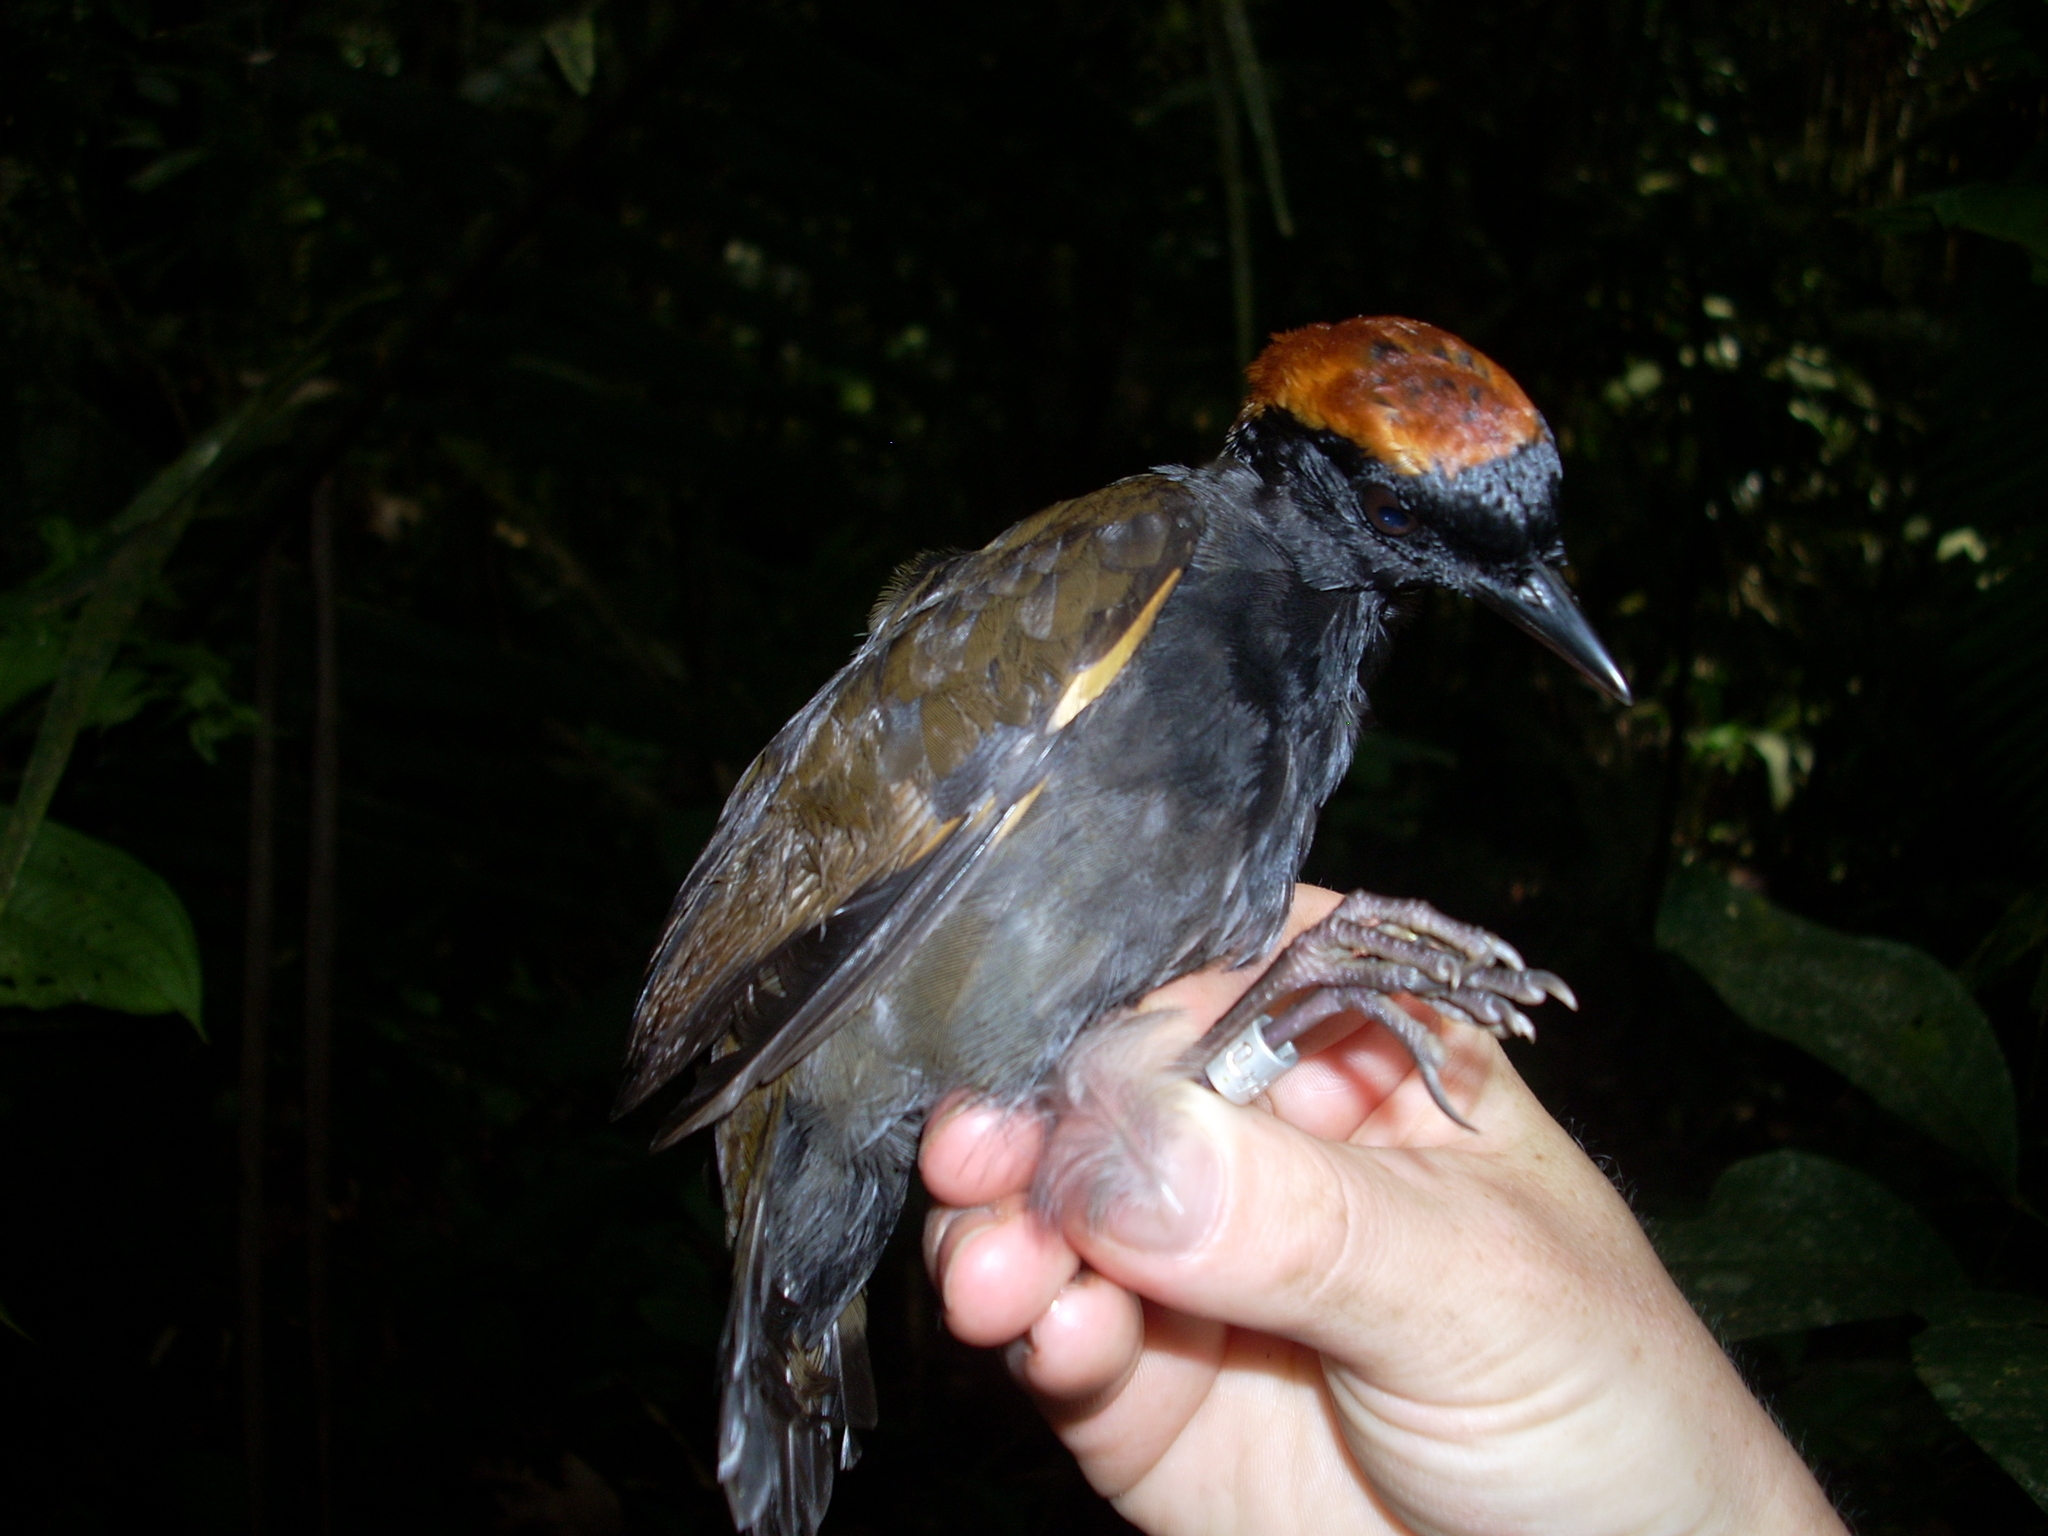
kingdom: Animalia
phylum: Chordata
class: Aves
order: Passeriformes
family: Formicariidae
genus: Formicarius
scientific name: Formicarius colma
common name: Rufous-capped antthrush
